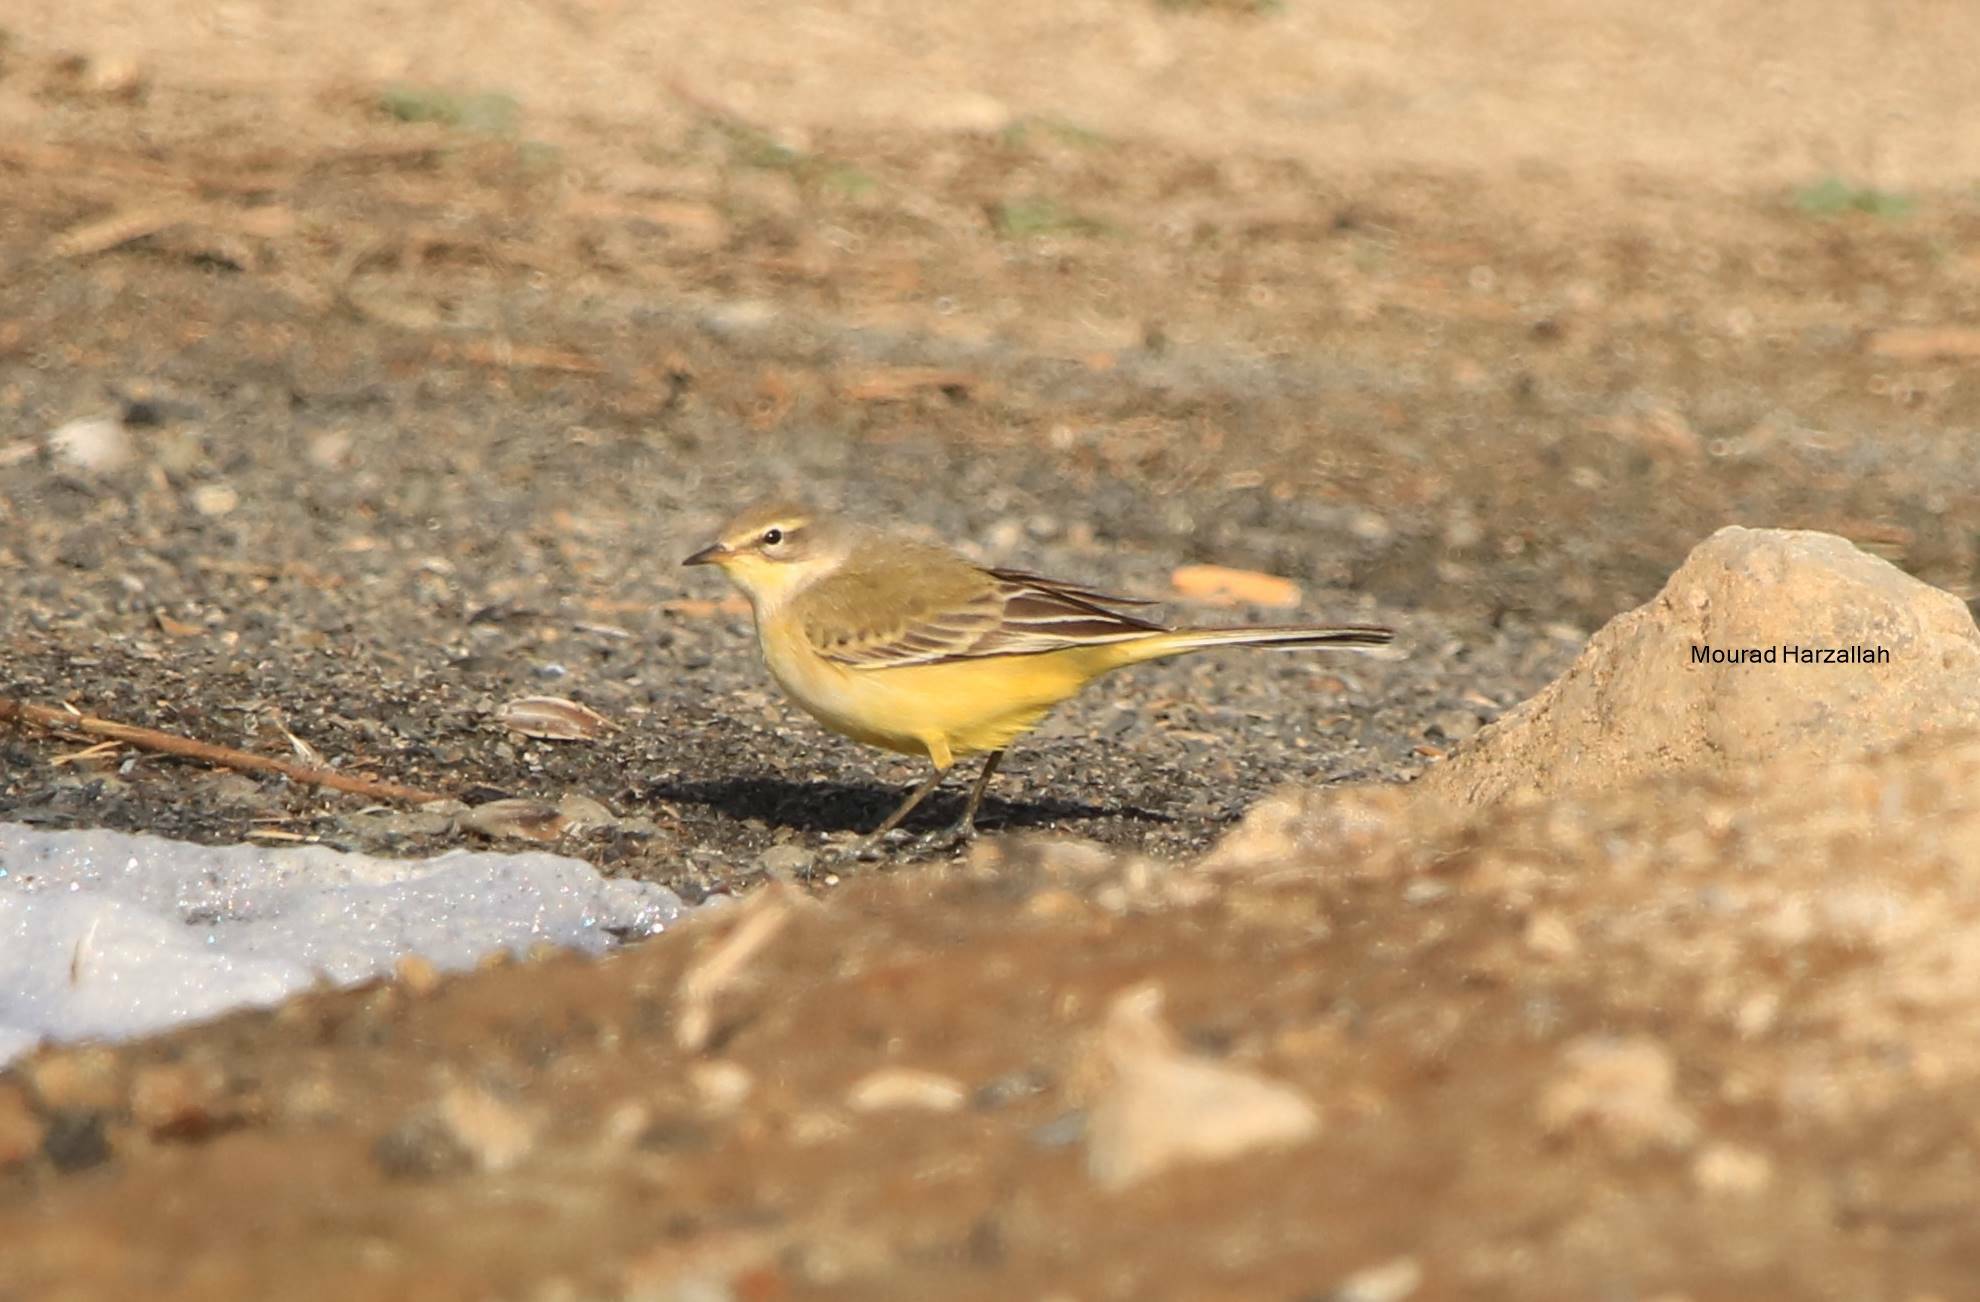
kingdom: Animalia
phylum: Chordata
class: Aves
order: Passeriformes
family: Motacillidae
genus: Motacilla
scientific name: Motacilla flava
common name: Western yellow wagtail
